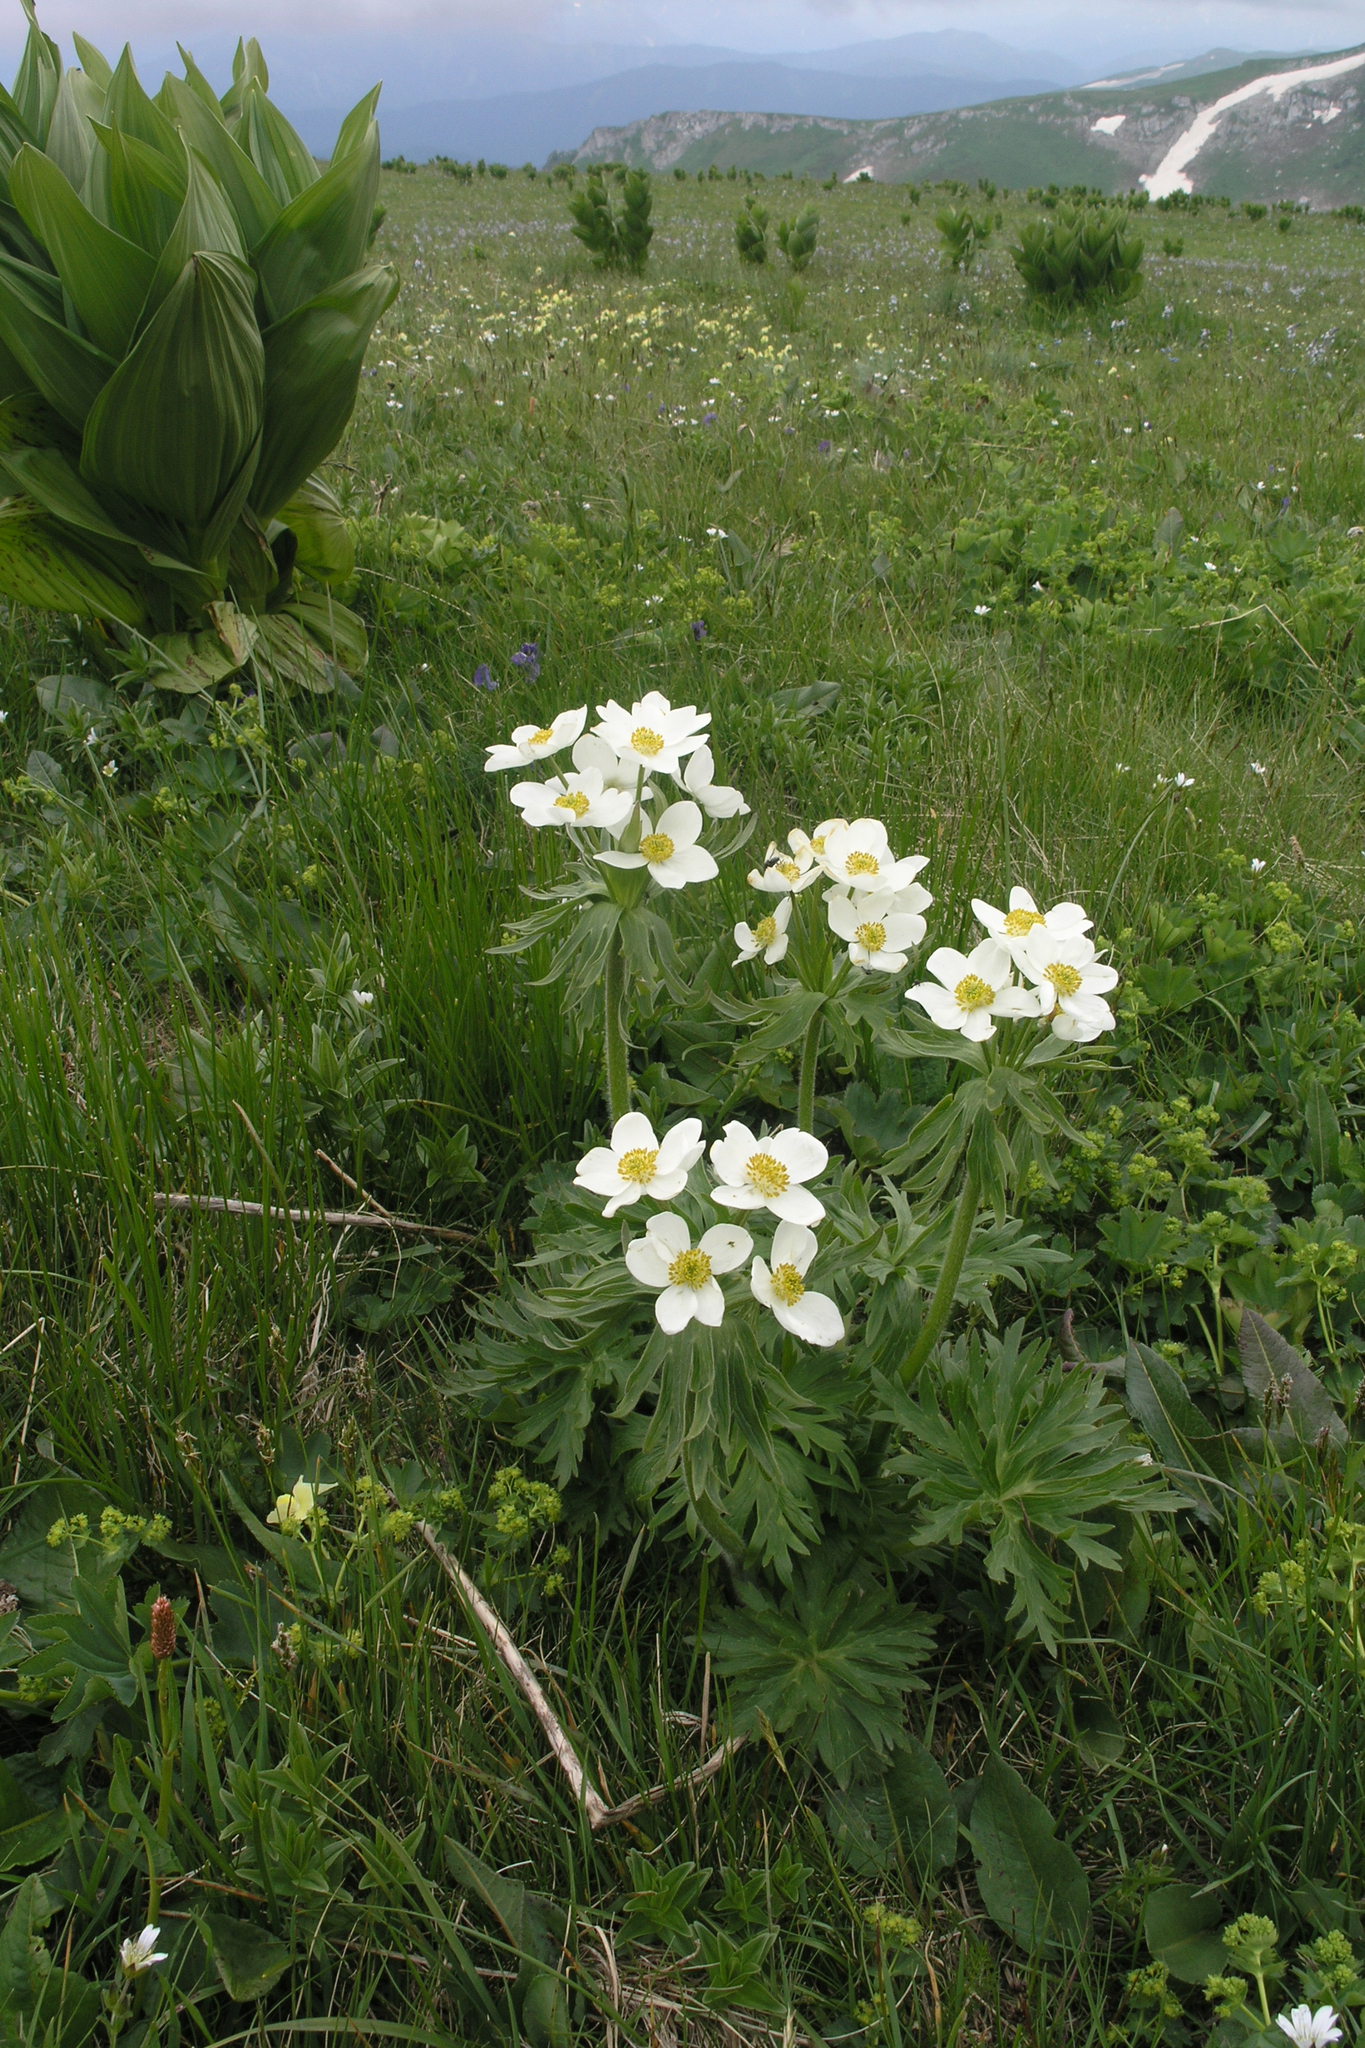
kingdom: Plantae
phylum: Tracheophyta
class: Magnoliopsida
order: Ranunculales
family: Ranunculaceae
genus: Anemonastrum
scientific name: Anemonastrum narcissiflorum
